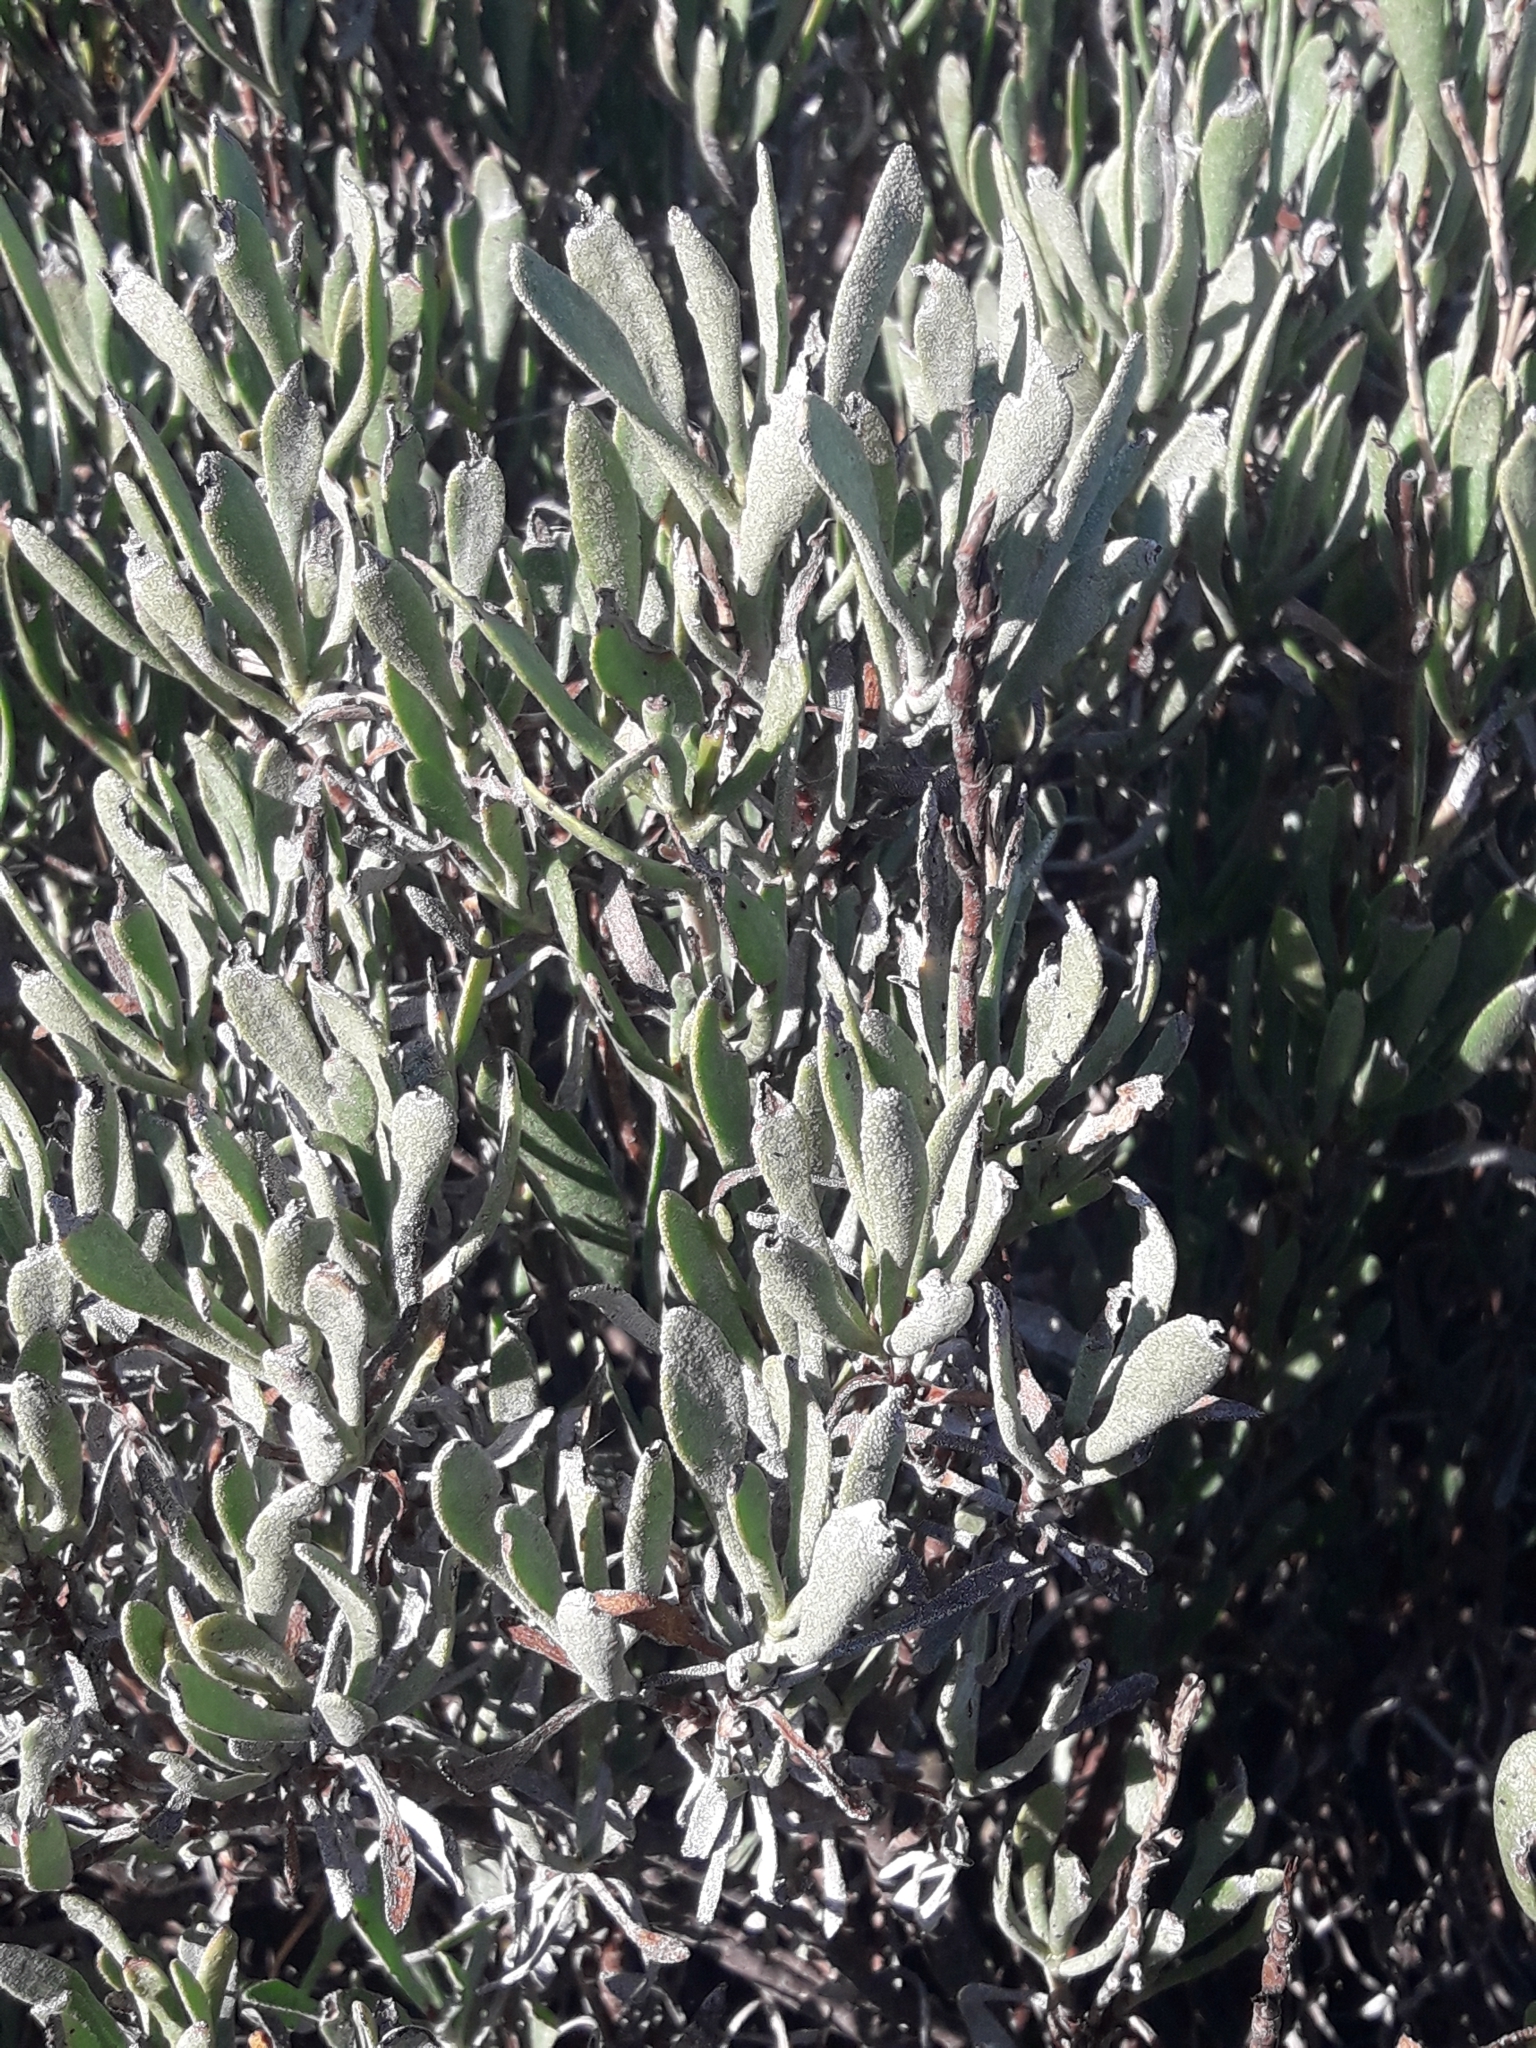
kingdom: Plantae
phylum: Tracheophyta
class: Magnoliopsida
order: Caryophyllales
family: Plumbaginaceae
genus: Limoniastrum
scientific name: Limoniastrum monopetalum
